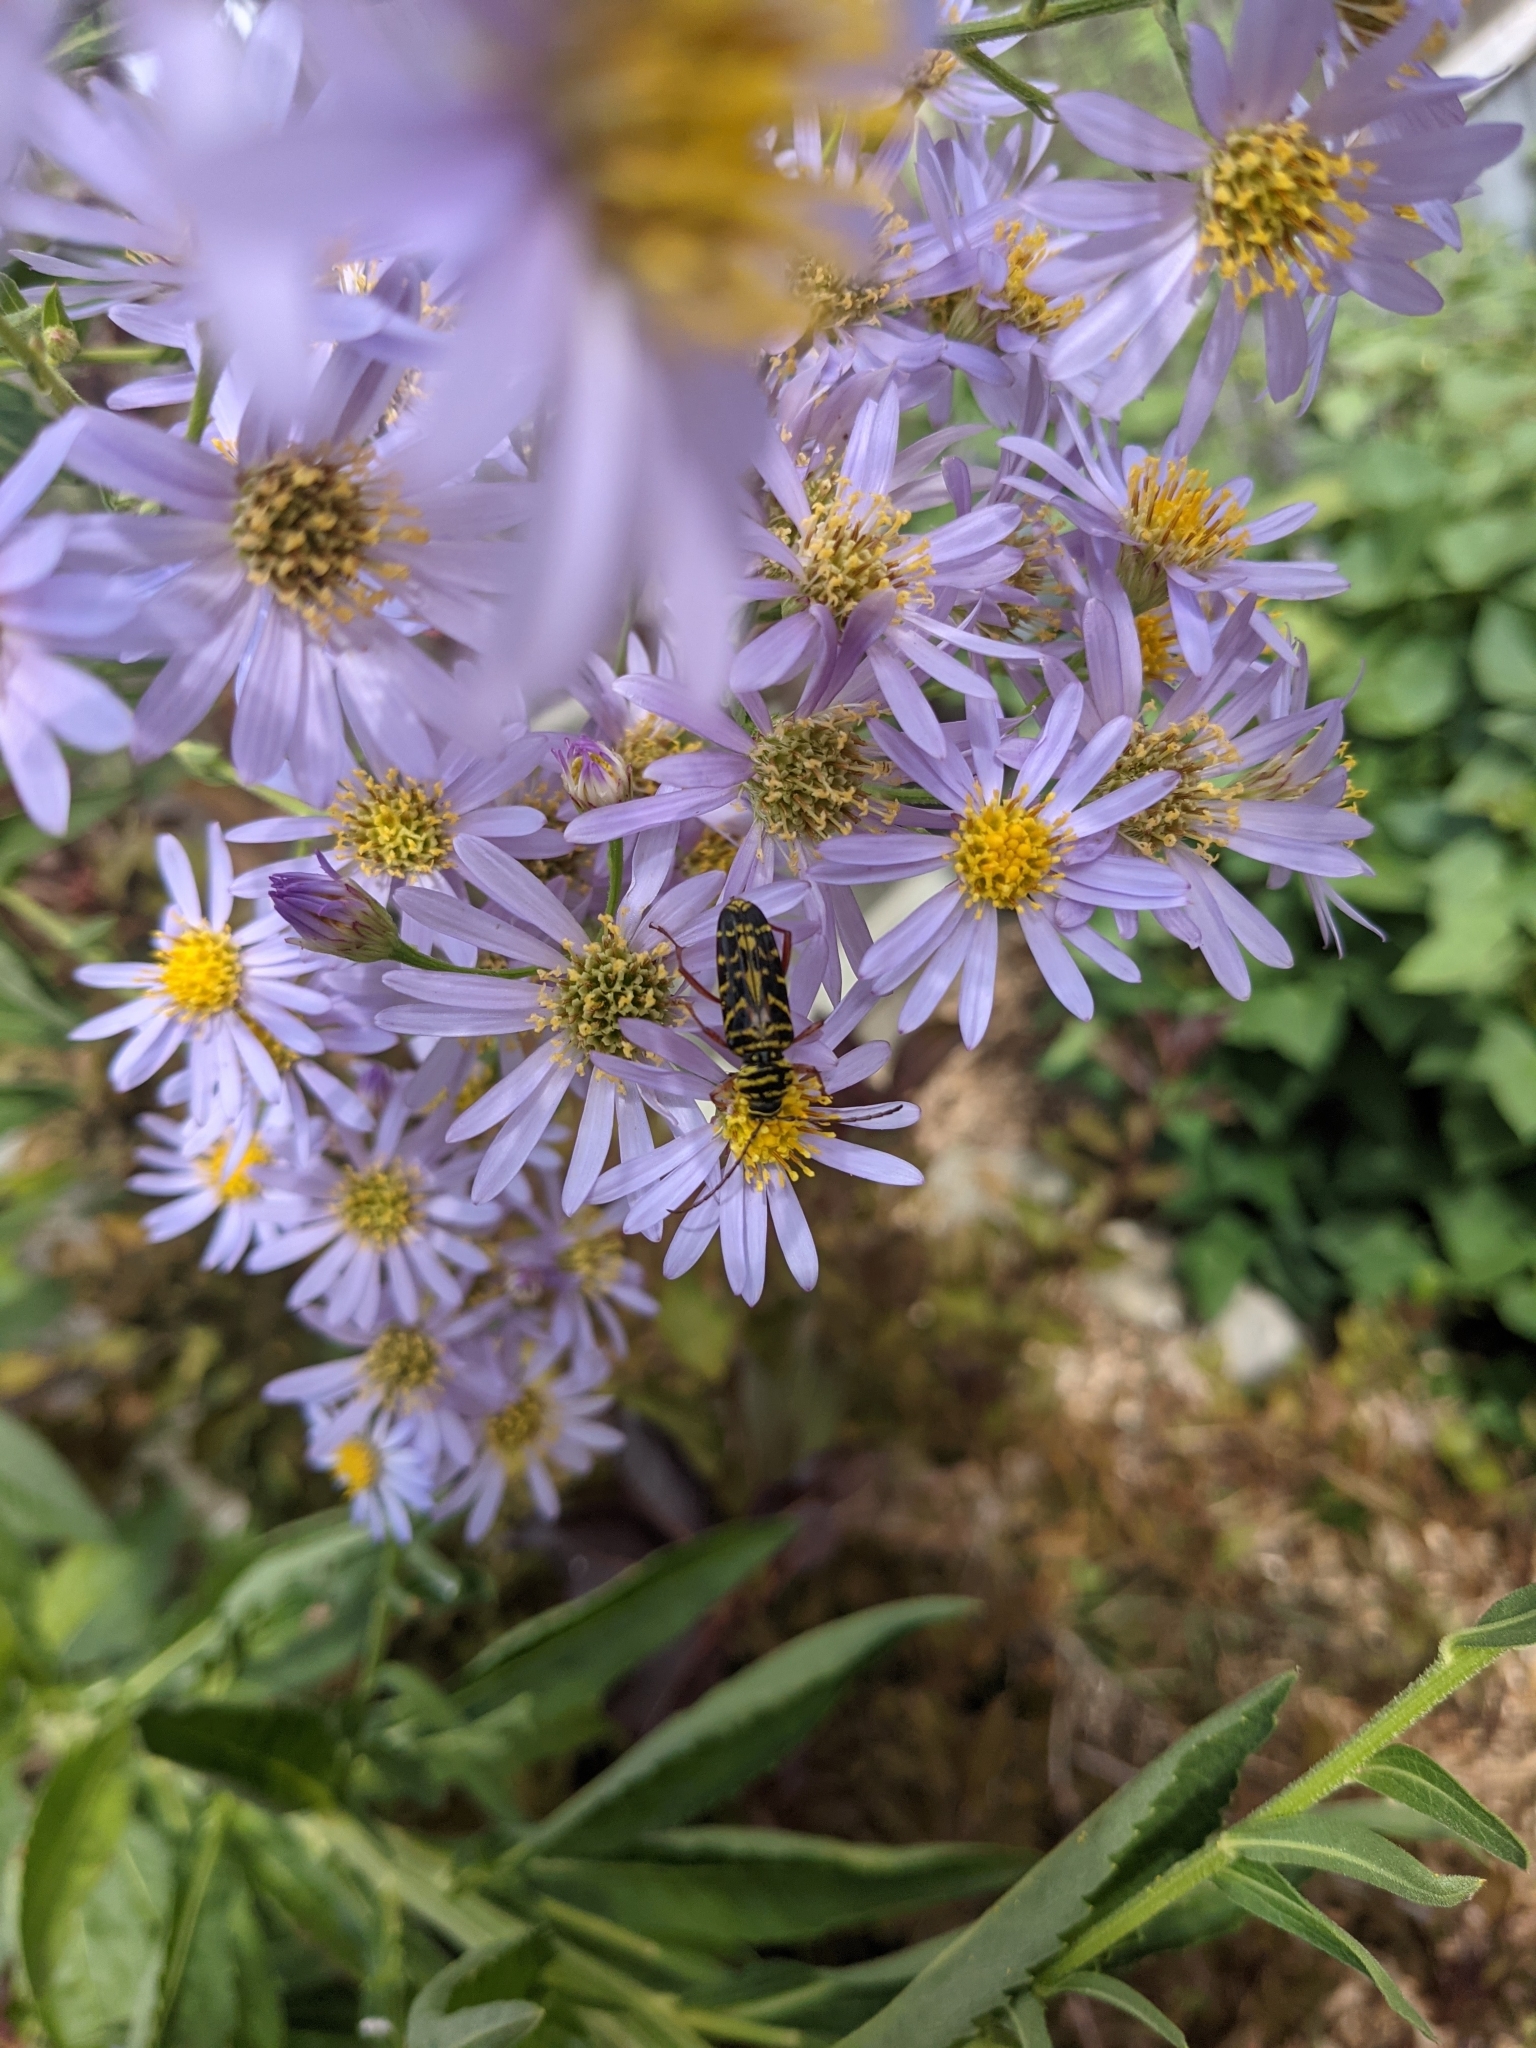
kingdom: Animalia
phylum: Arthropoda
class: Insecta
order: Coleoptera
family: Cerambycidae
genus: Megacyllene
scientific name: Megacyllene robiniae
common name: Locust borer
